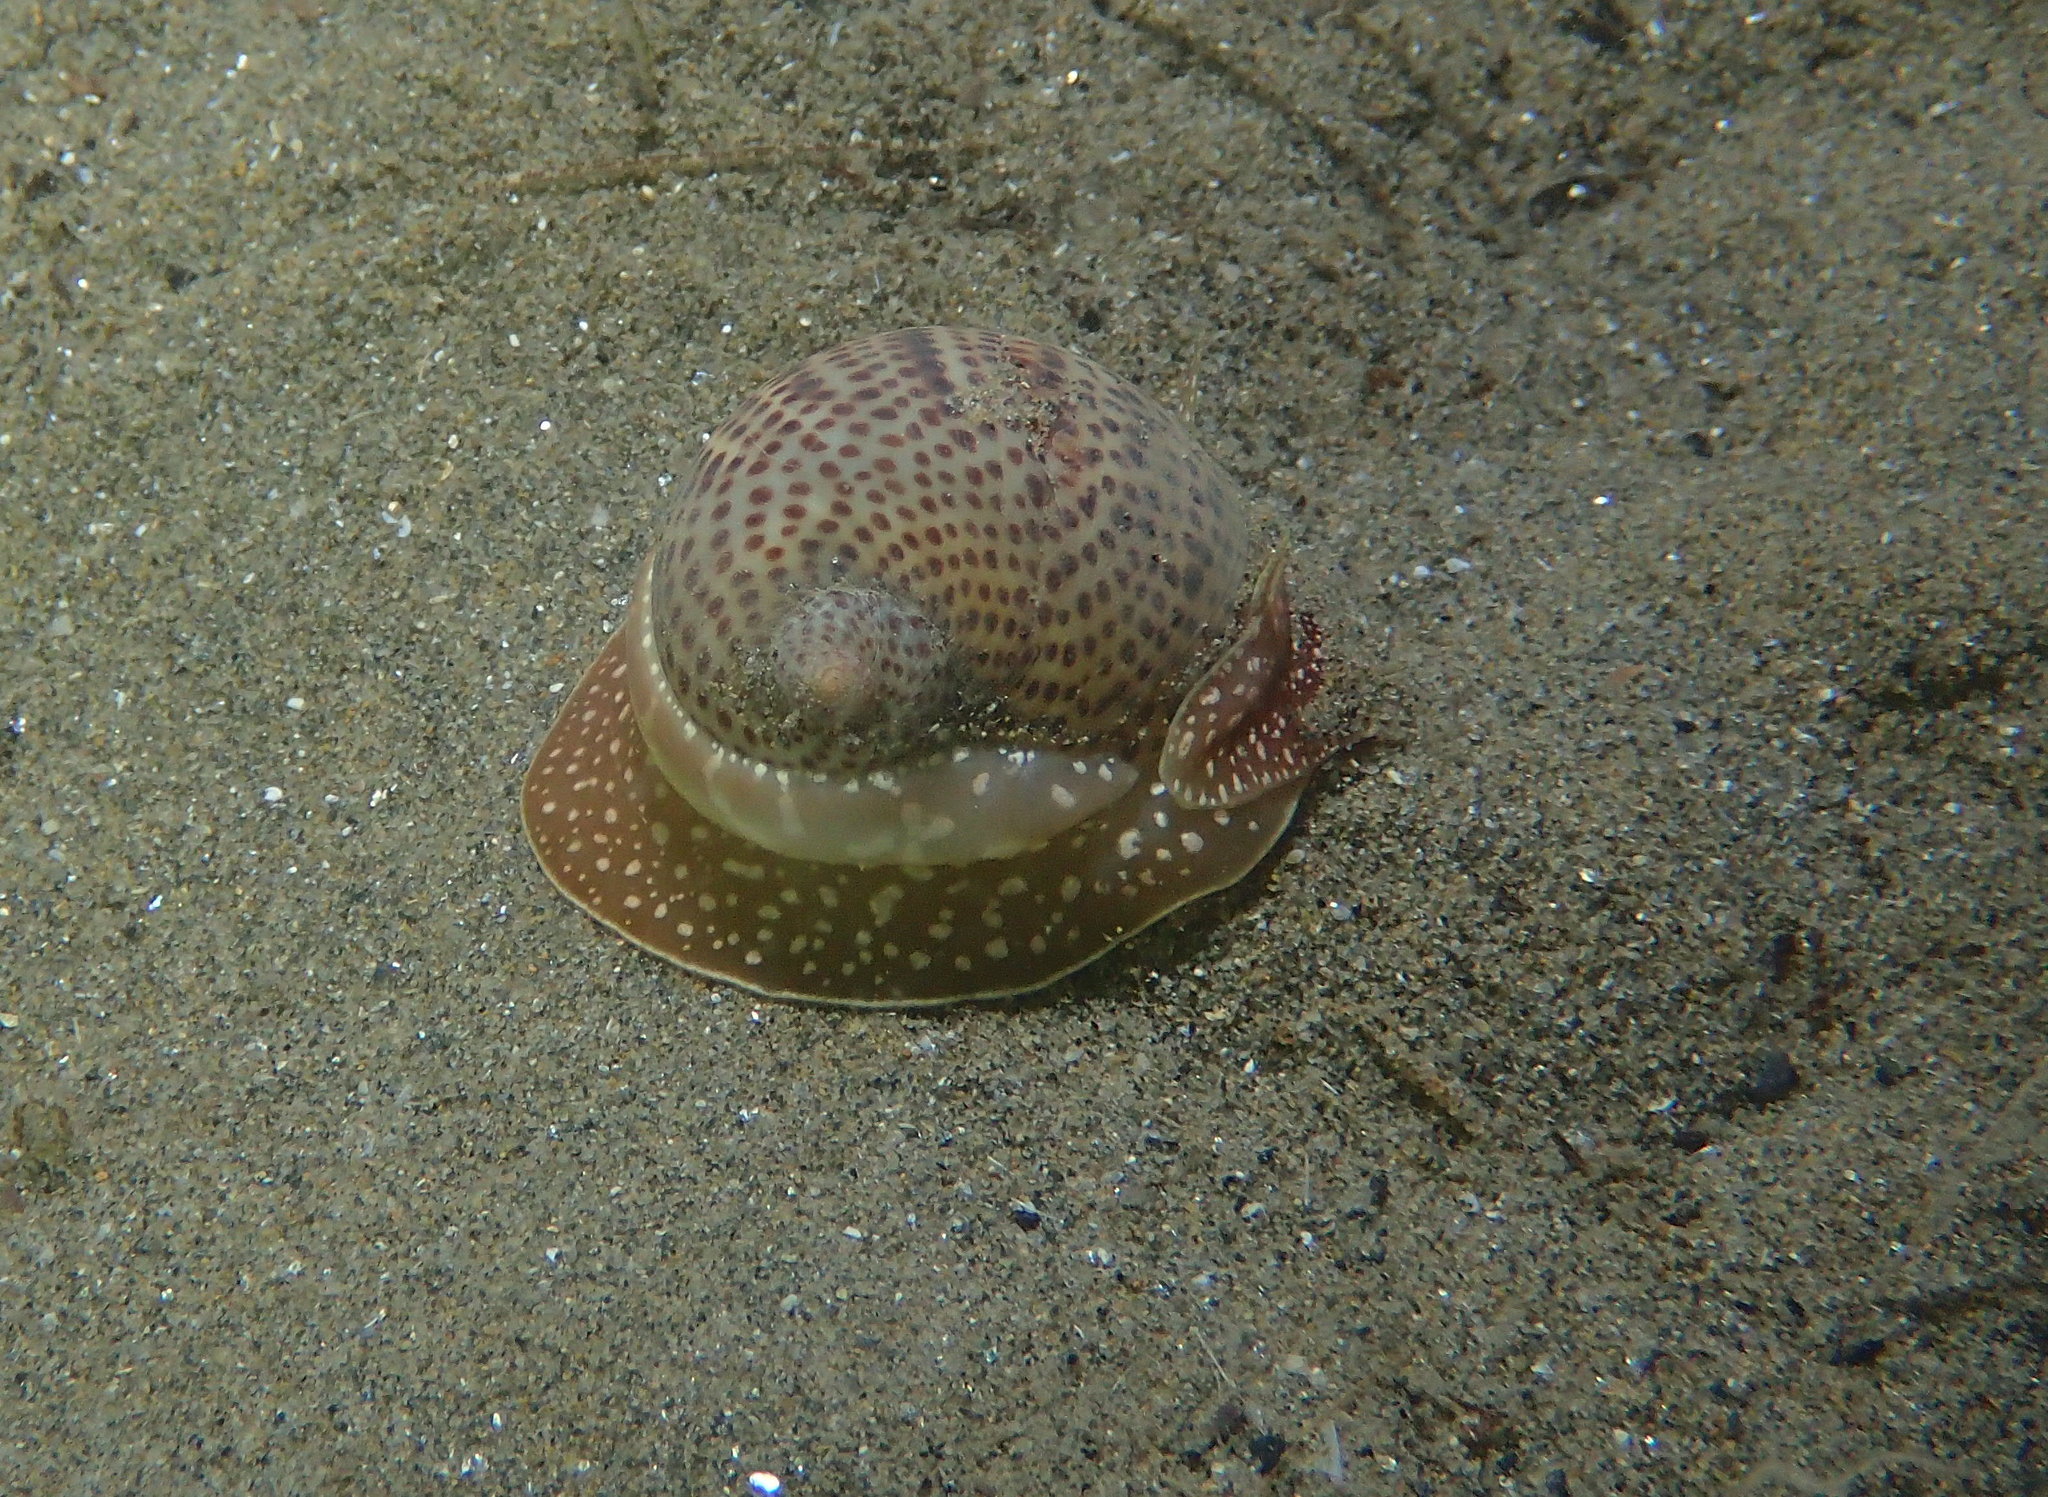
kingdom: Animalia
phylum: Mollusca
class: Gastropoda
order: Littorinimorpha
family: Naticidae
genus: Naticarius
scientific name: Naticarius stercusmuscarum
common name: Fly-speck moonsnail
